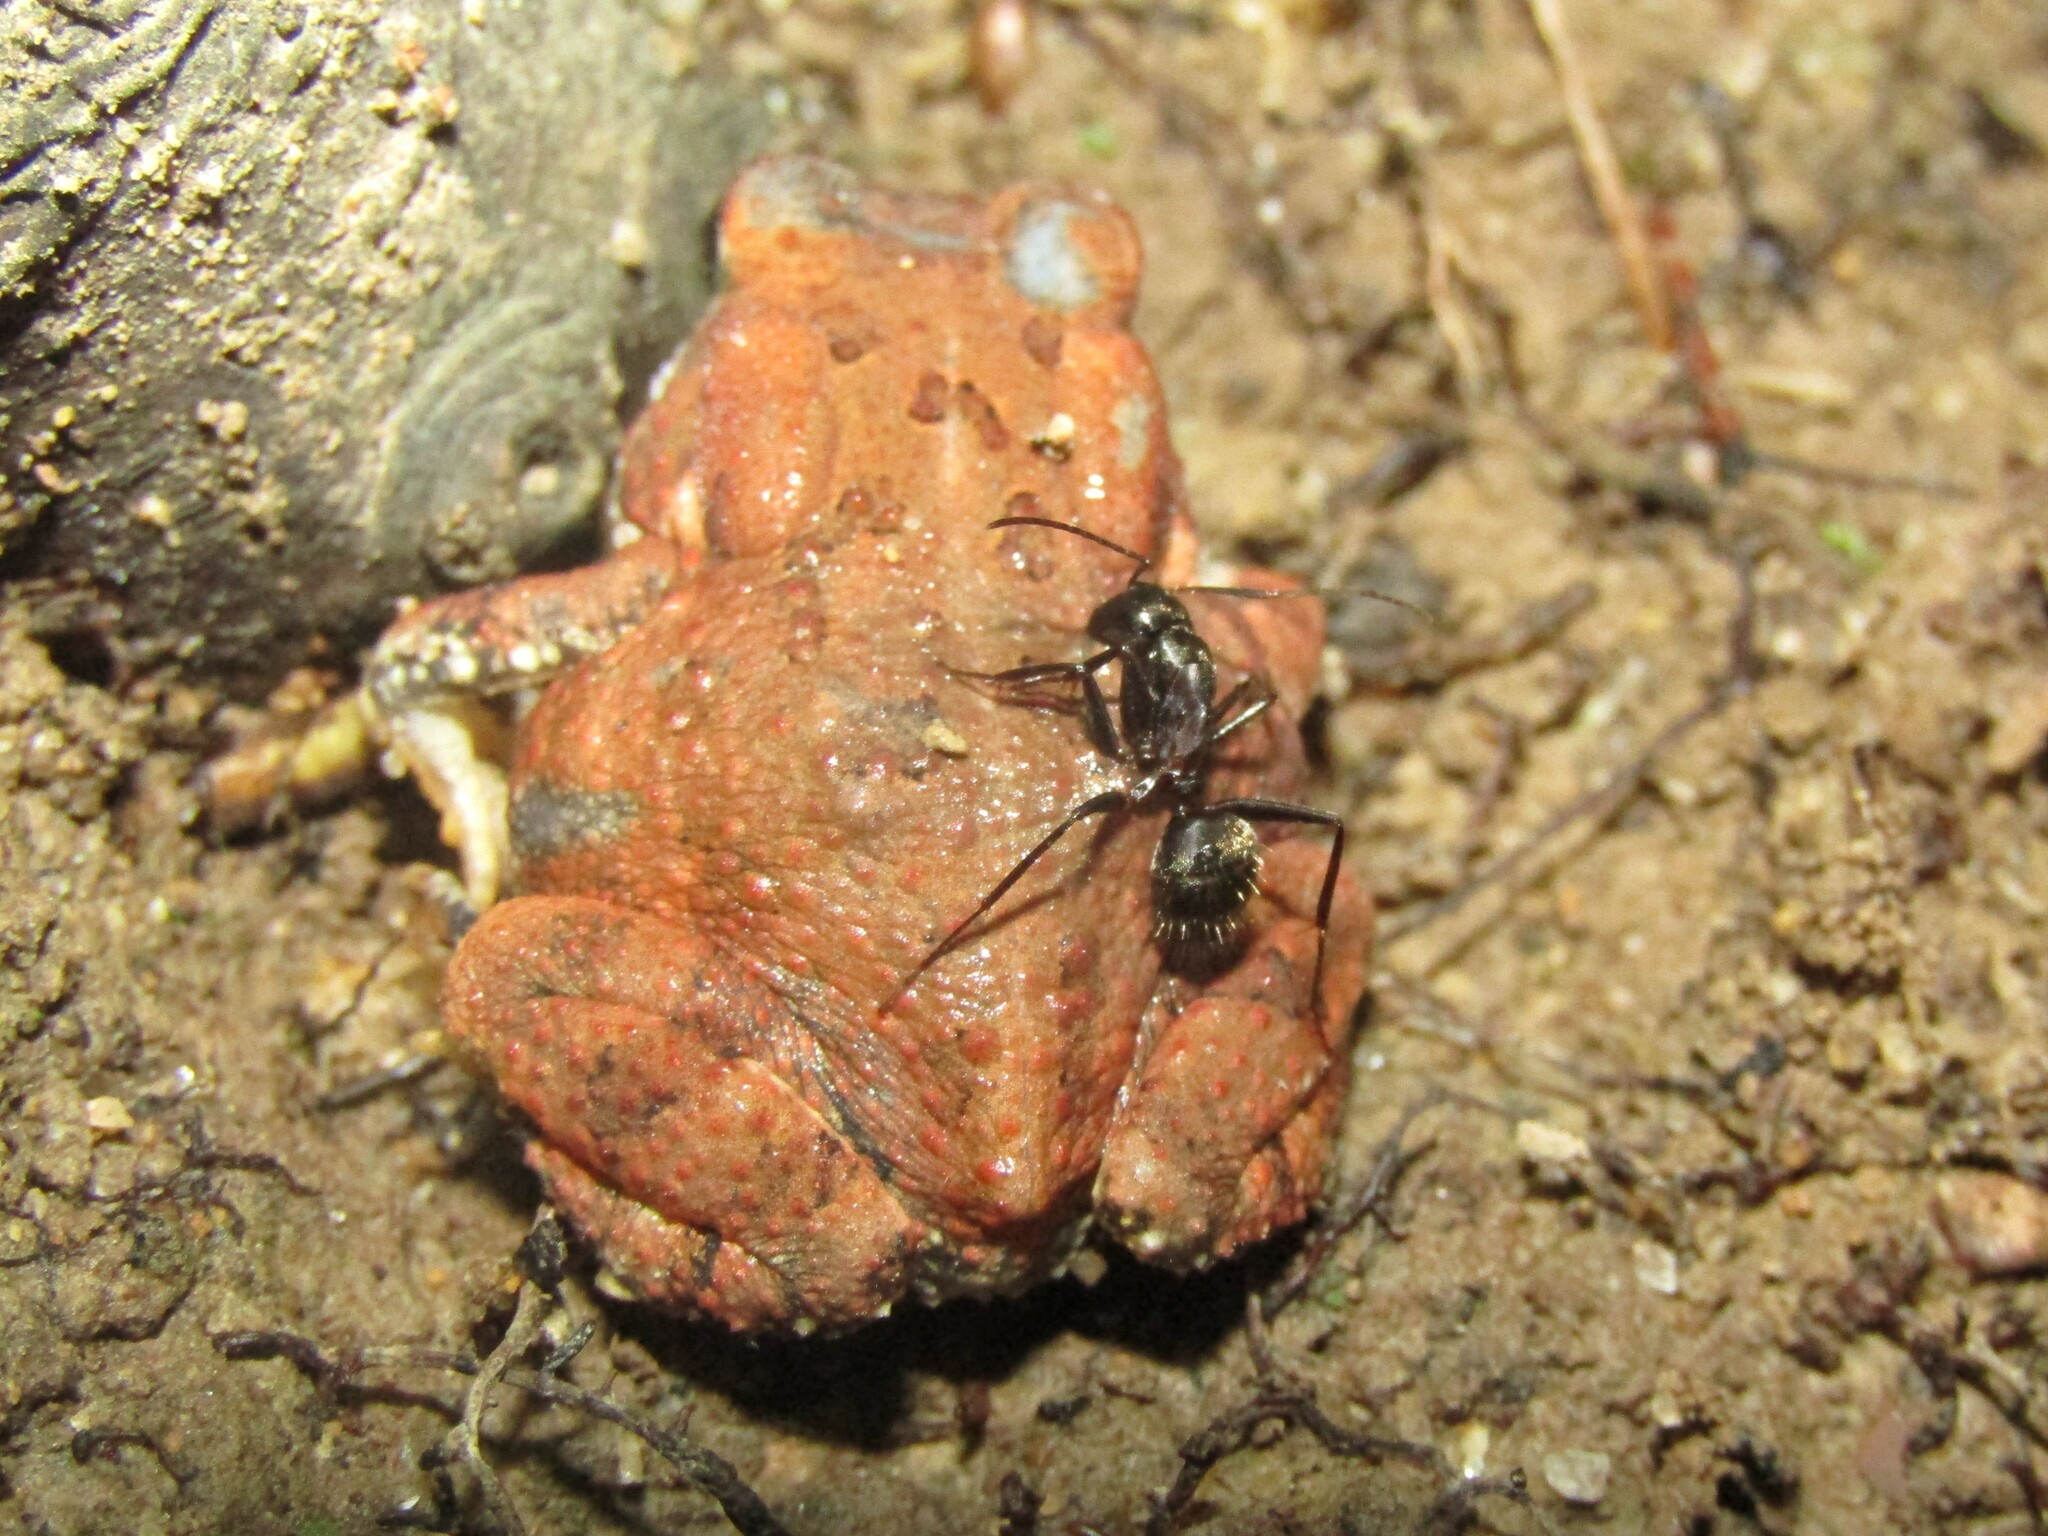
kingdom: Animalia
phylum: Arthropoda
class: Insecta
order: Hymenoptera
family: Formicidae
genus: Camponotus
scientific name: Camponotus chromaiodes
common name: Red carpenter ant
